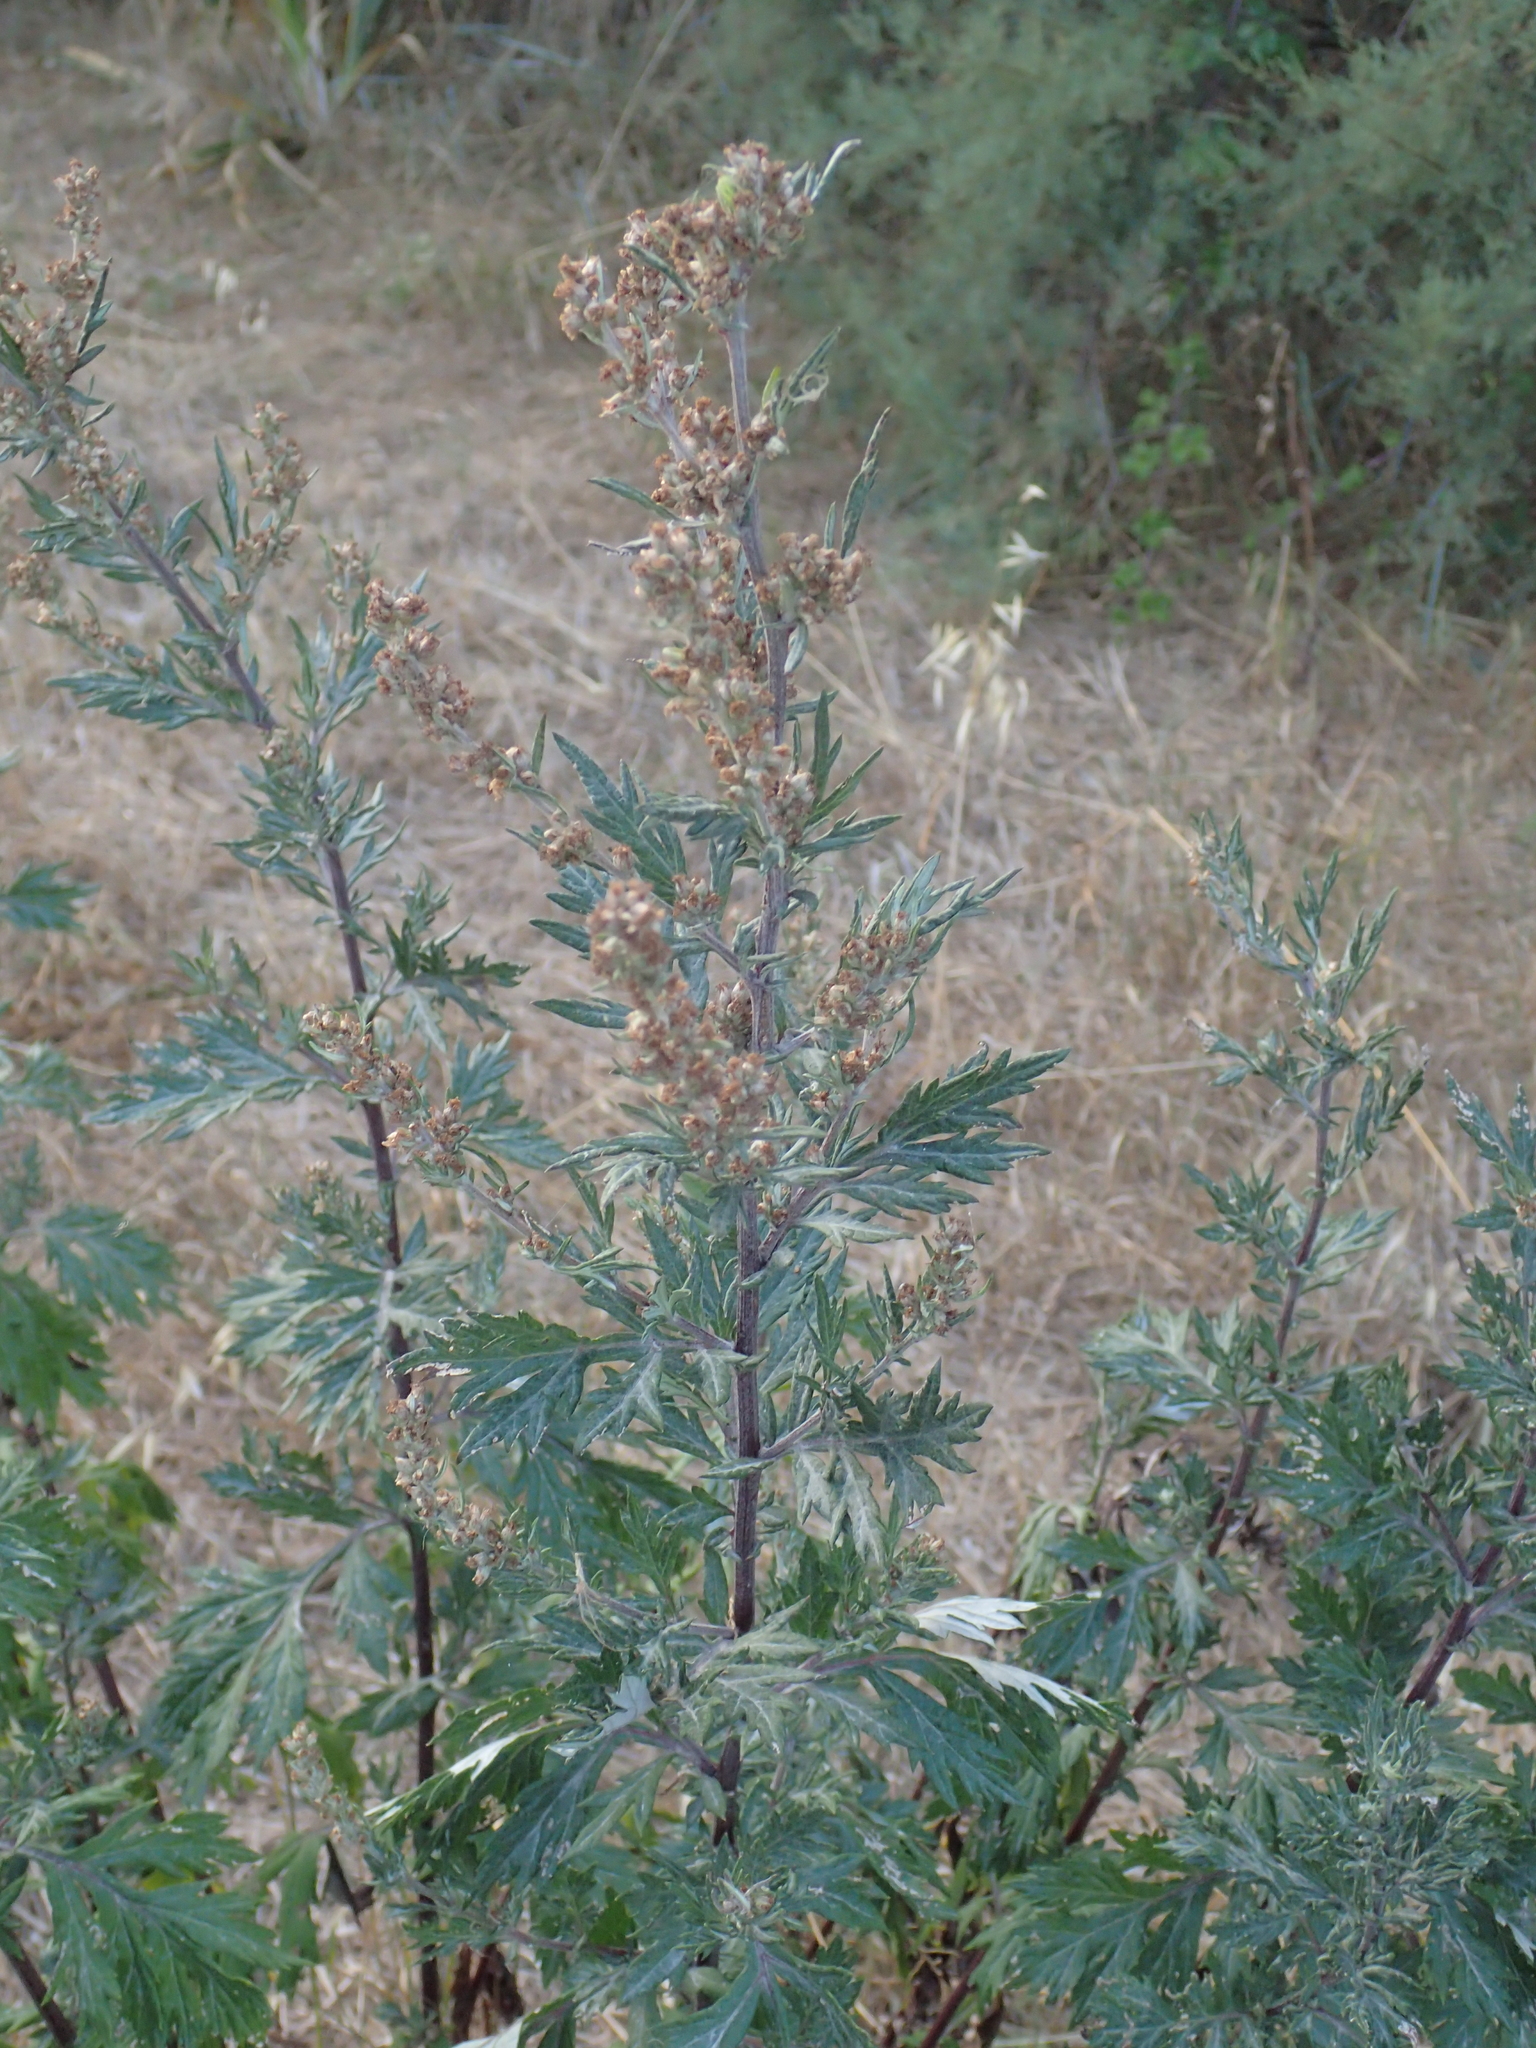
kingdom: Plantae
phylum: Tracheophyta
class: Magnoliopsida
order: Asterales
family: Asteraceae
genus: Artemisia
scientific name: Artemisia vulgaris
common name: Mugwort
